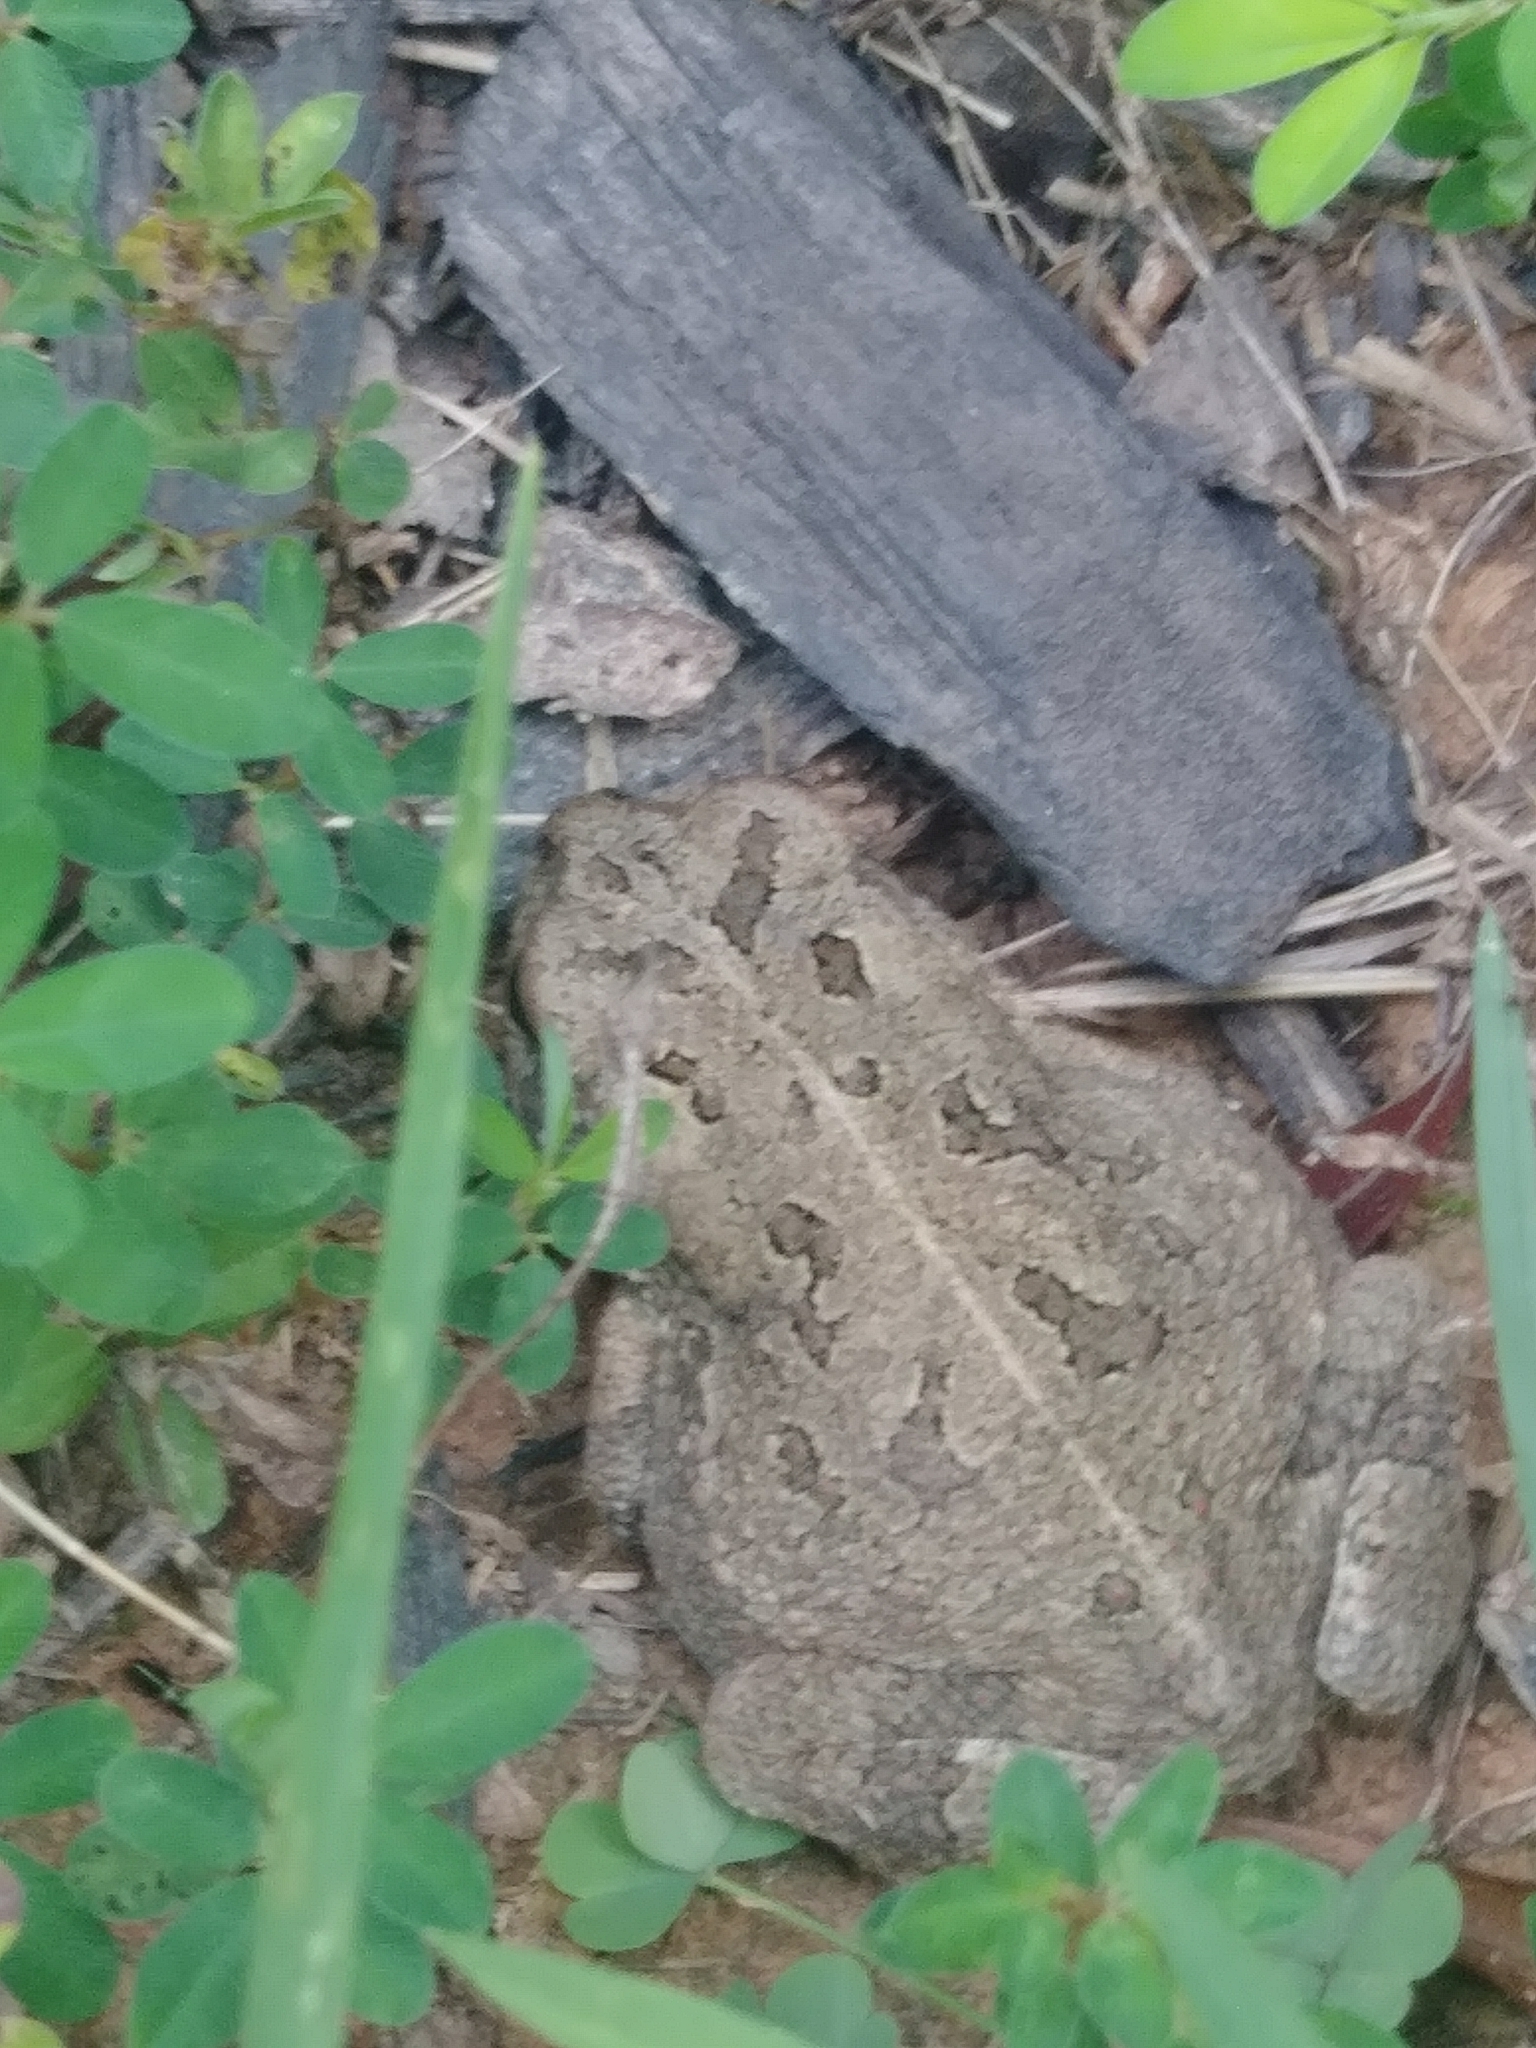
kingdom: Animalia
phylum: Chordata
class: Amphibia
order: Anura
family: Bufonidae
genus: Anaxyrus
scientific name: Anaxyrus fowleri
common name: Fowler's toad
